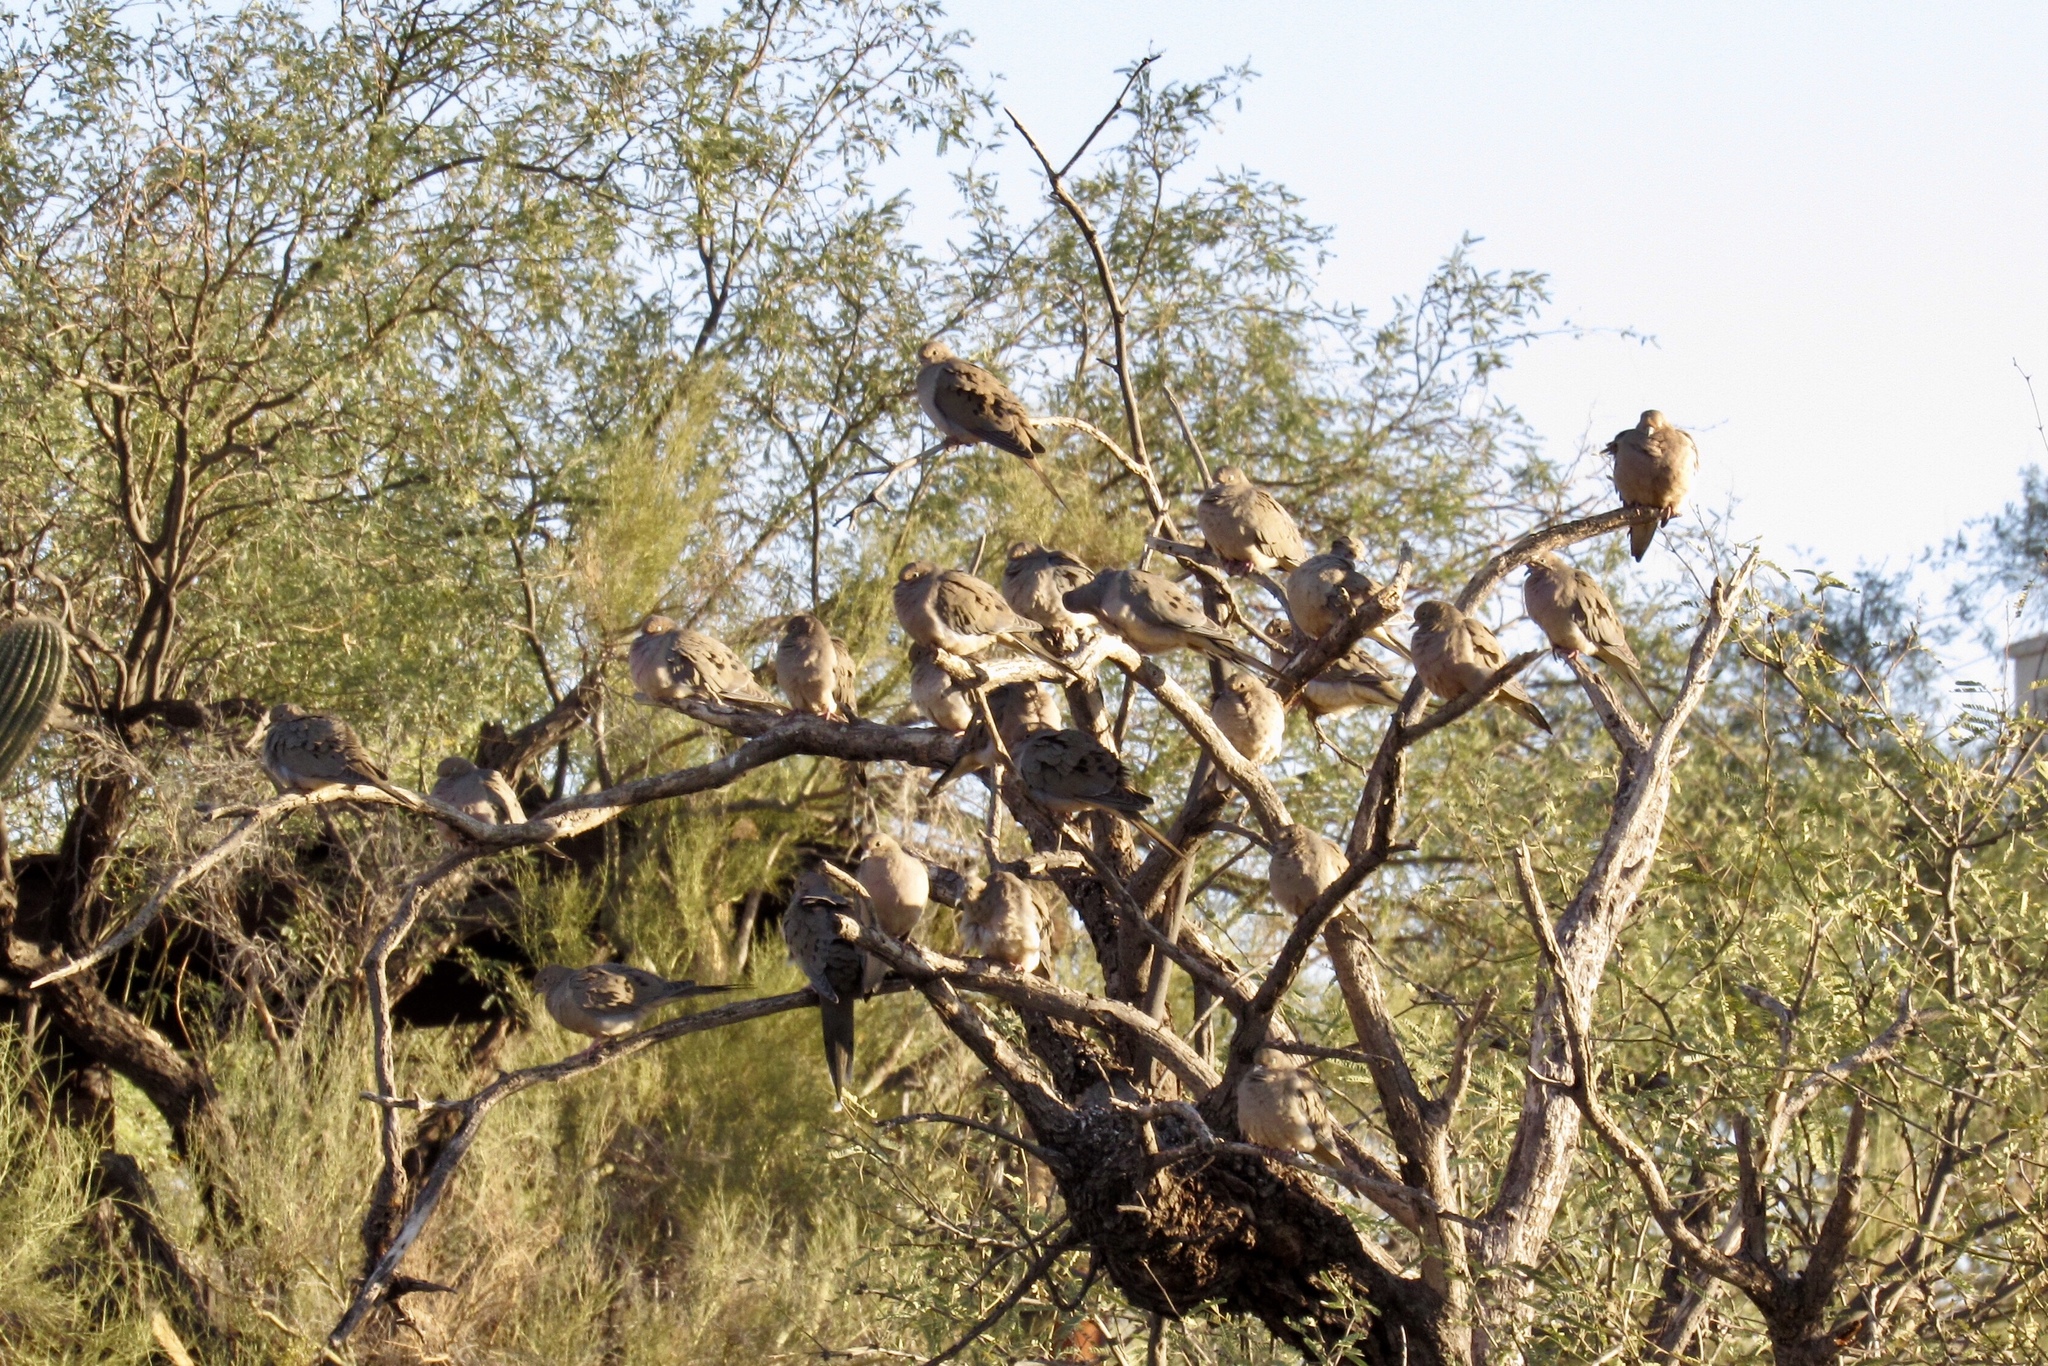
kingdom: Animalia
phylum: Chordata
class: Aves
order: Columbiformes
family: Columbidae
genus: Zenaida
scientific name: Zenaida macroura
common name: Mourning dove
